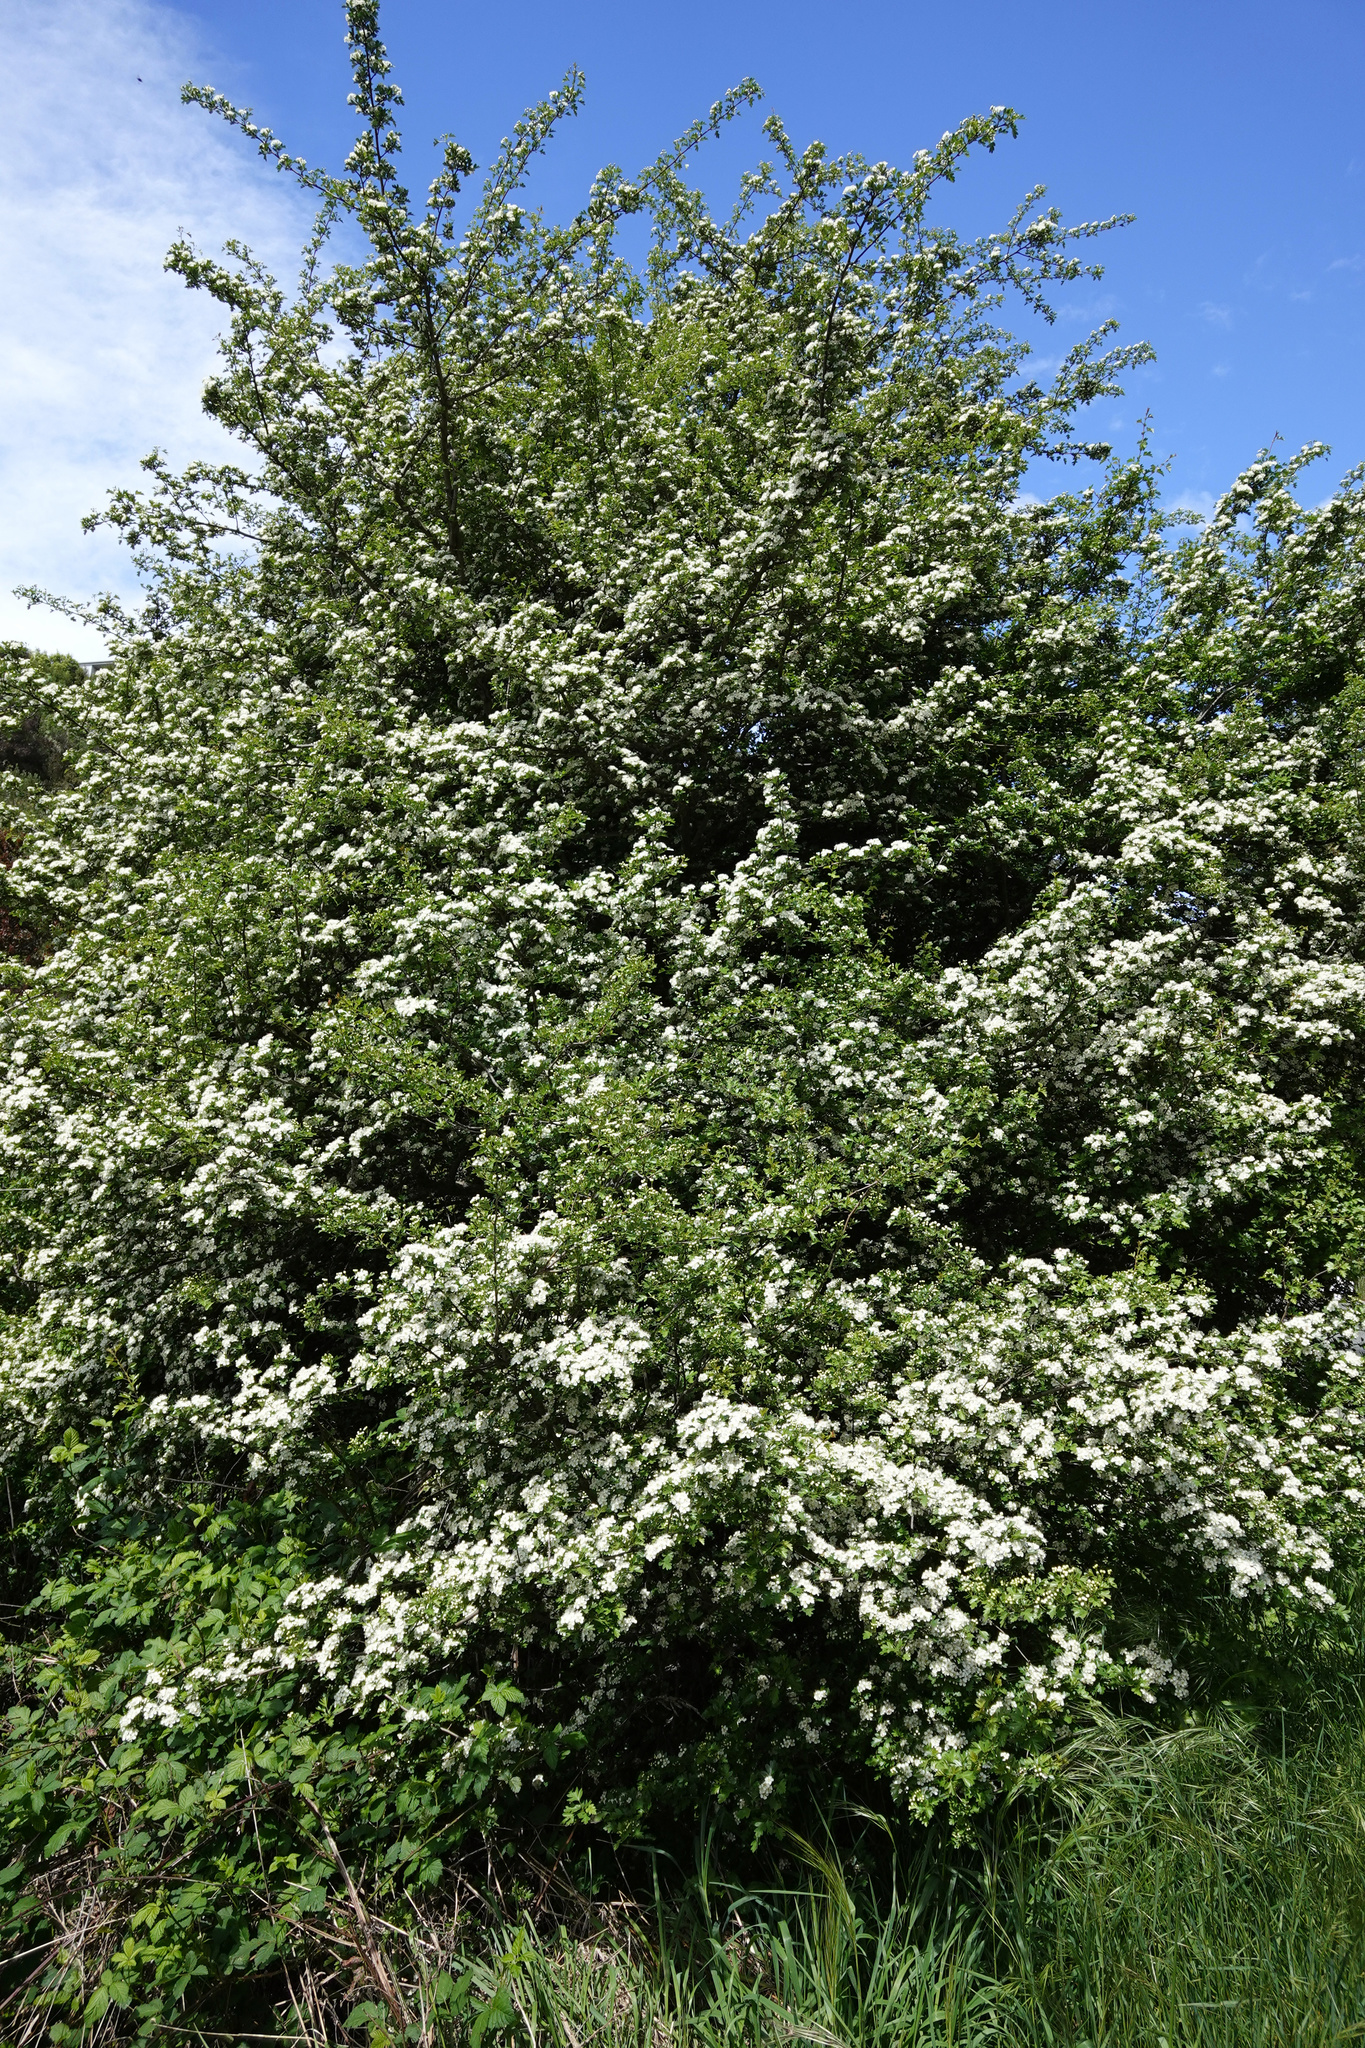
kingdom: Plantae
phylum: Tracheophyta
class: Magnoliopsida
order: Rosales
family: Rosaceae
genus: Crataegus
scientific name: Crataegus monogyna
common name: Hawthorn
